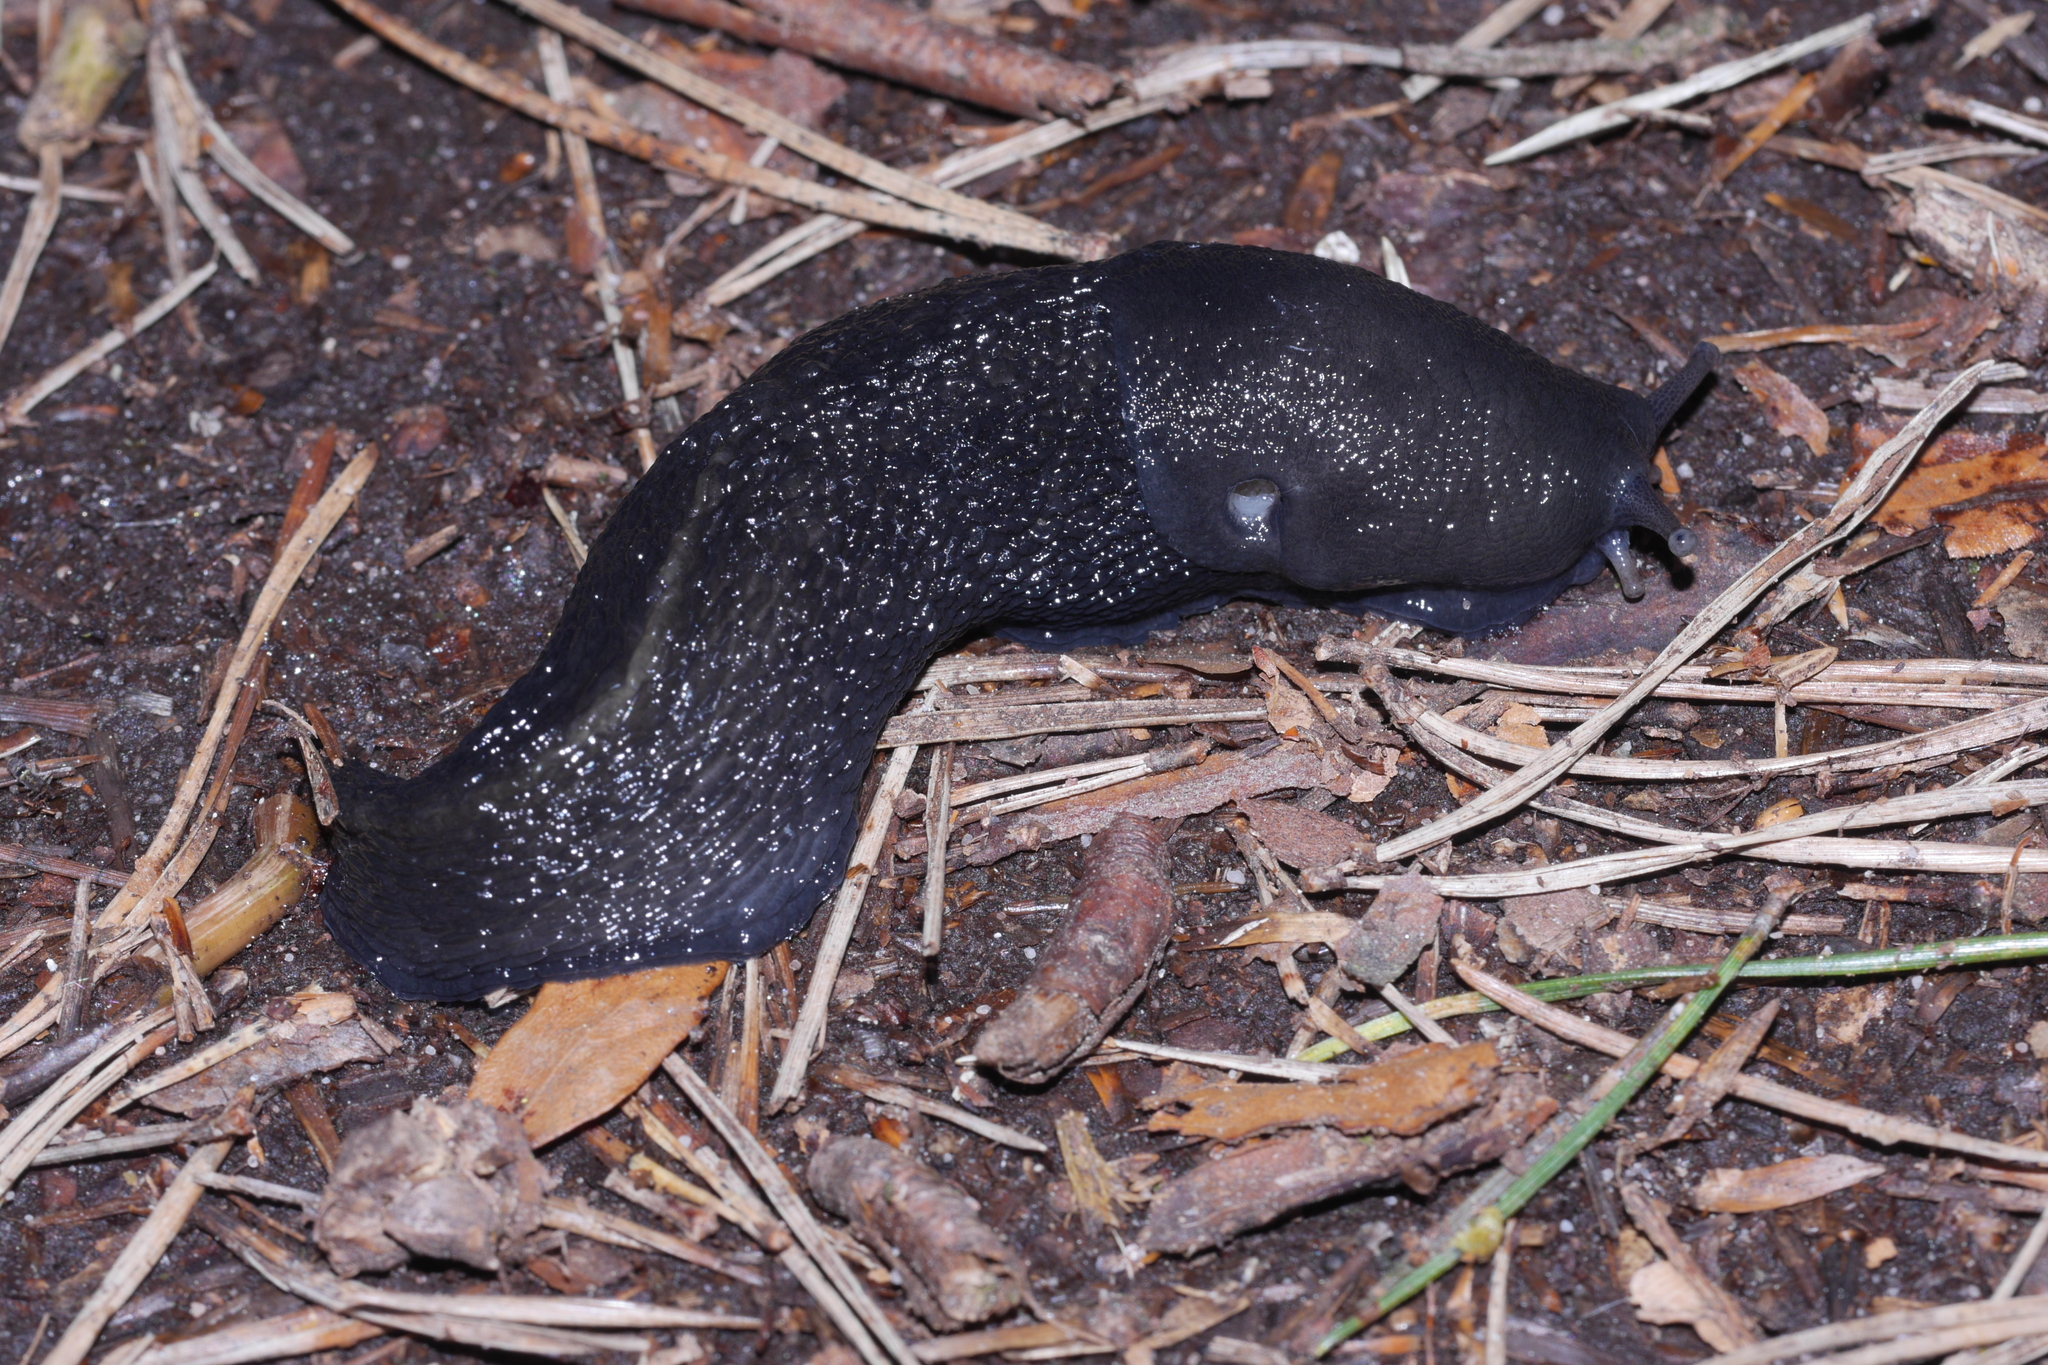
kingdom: Animalia
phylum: Mollusca
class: Gastropoda
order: Stylommatophora
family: Limacidae
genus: Limax
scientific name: Limax cinereoniger
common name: Ash-black slug
